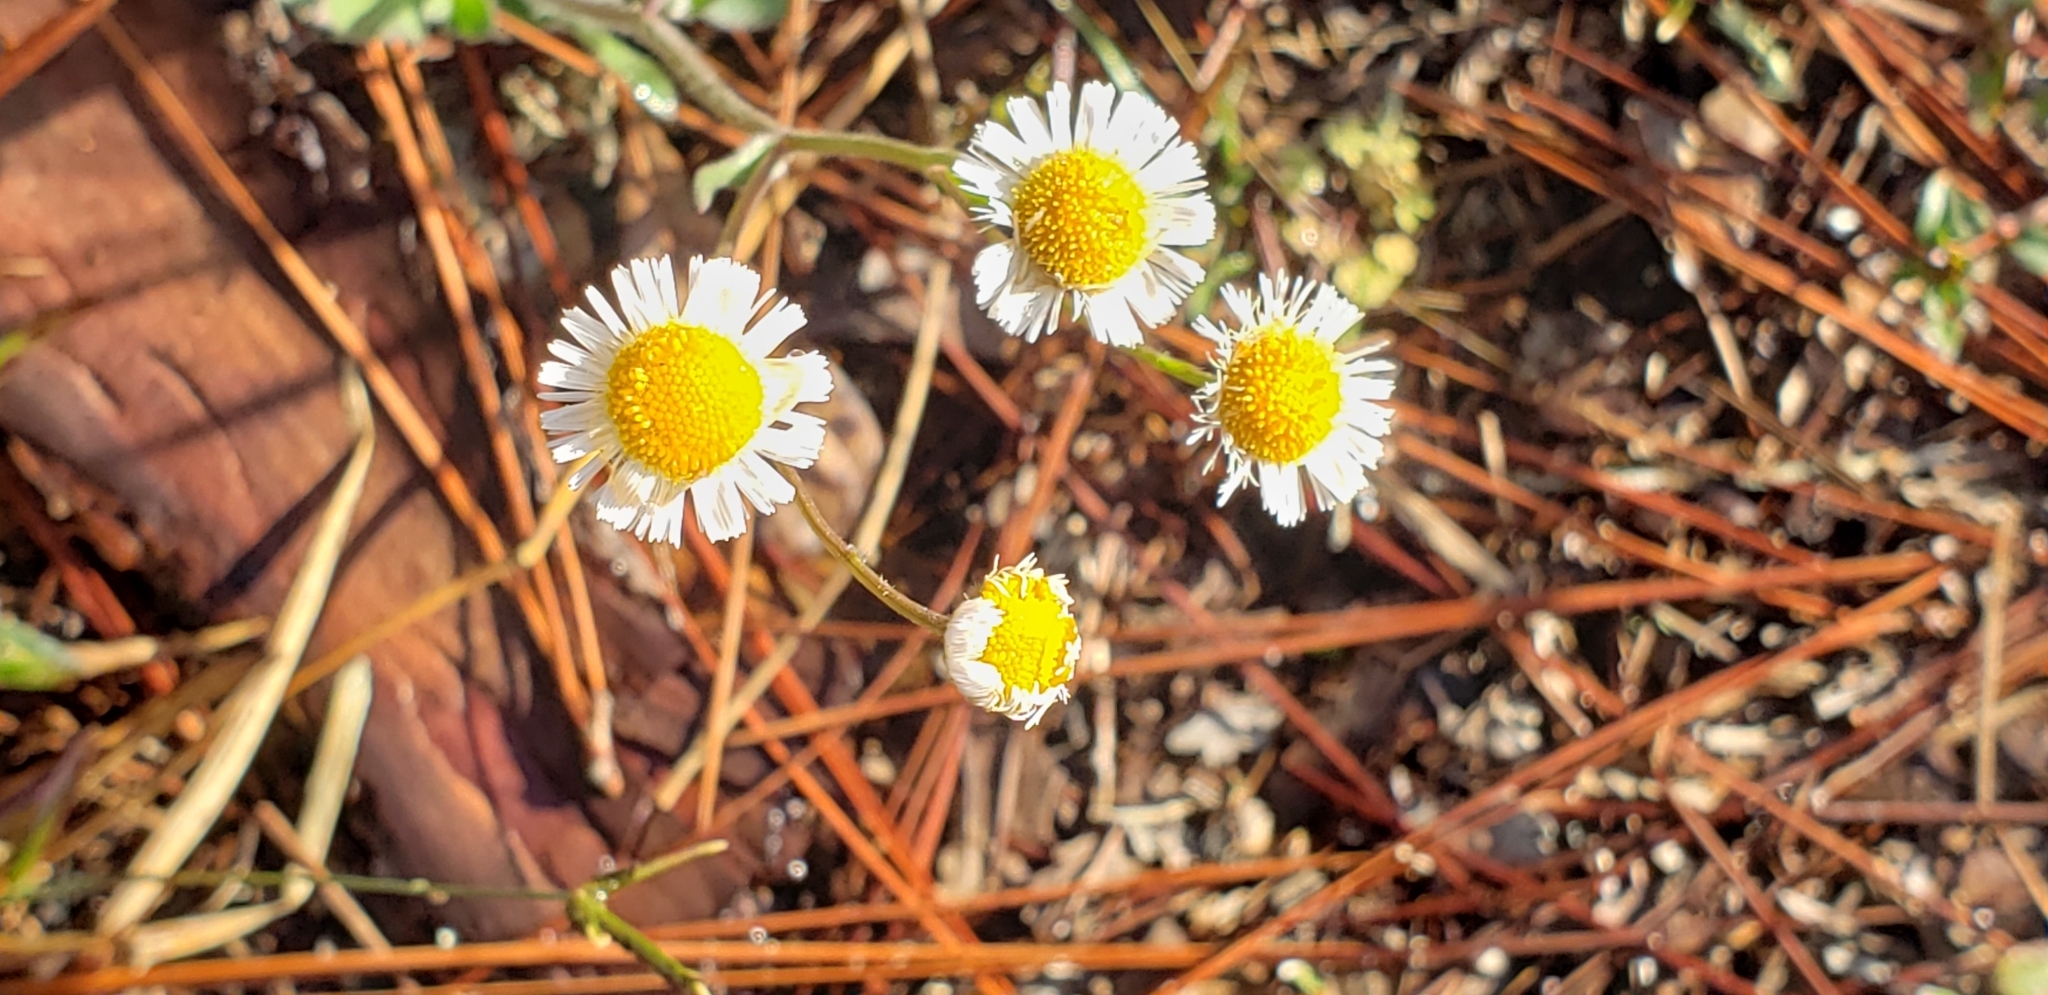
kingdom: Plantae
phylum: Tracheophyta
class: Magnoliopsida
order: Asterales
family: Asteraceae
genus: Erigeron
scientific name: Erigeron quercifolius
